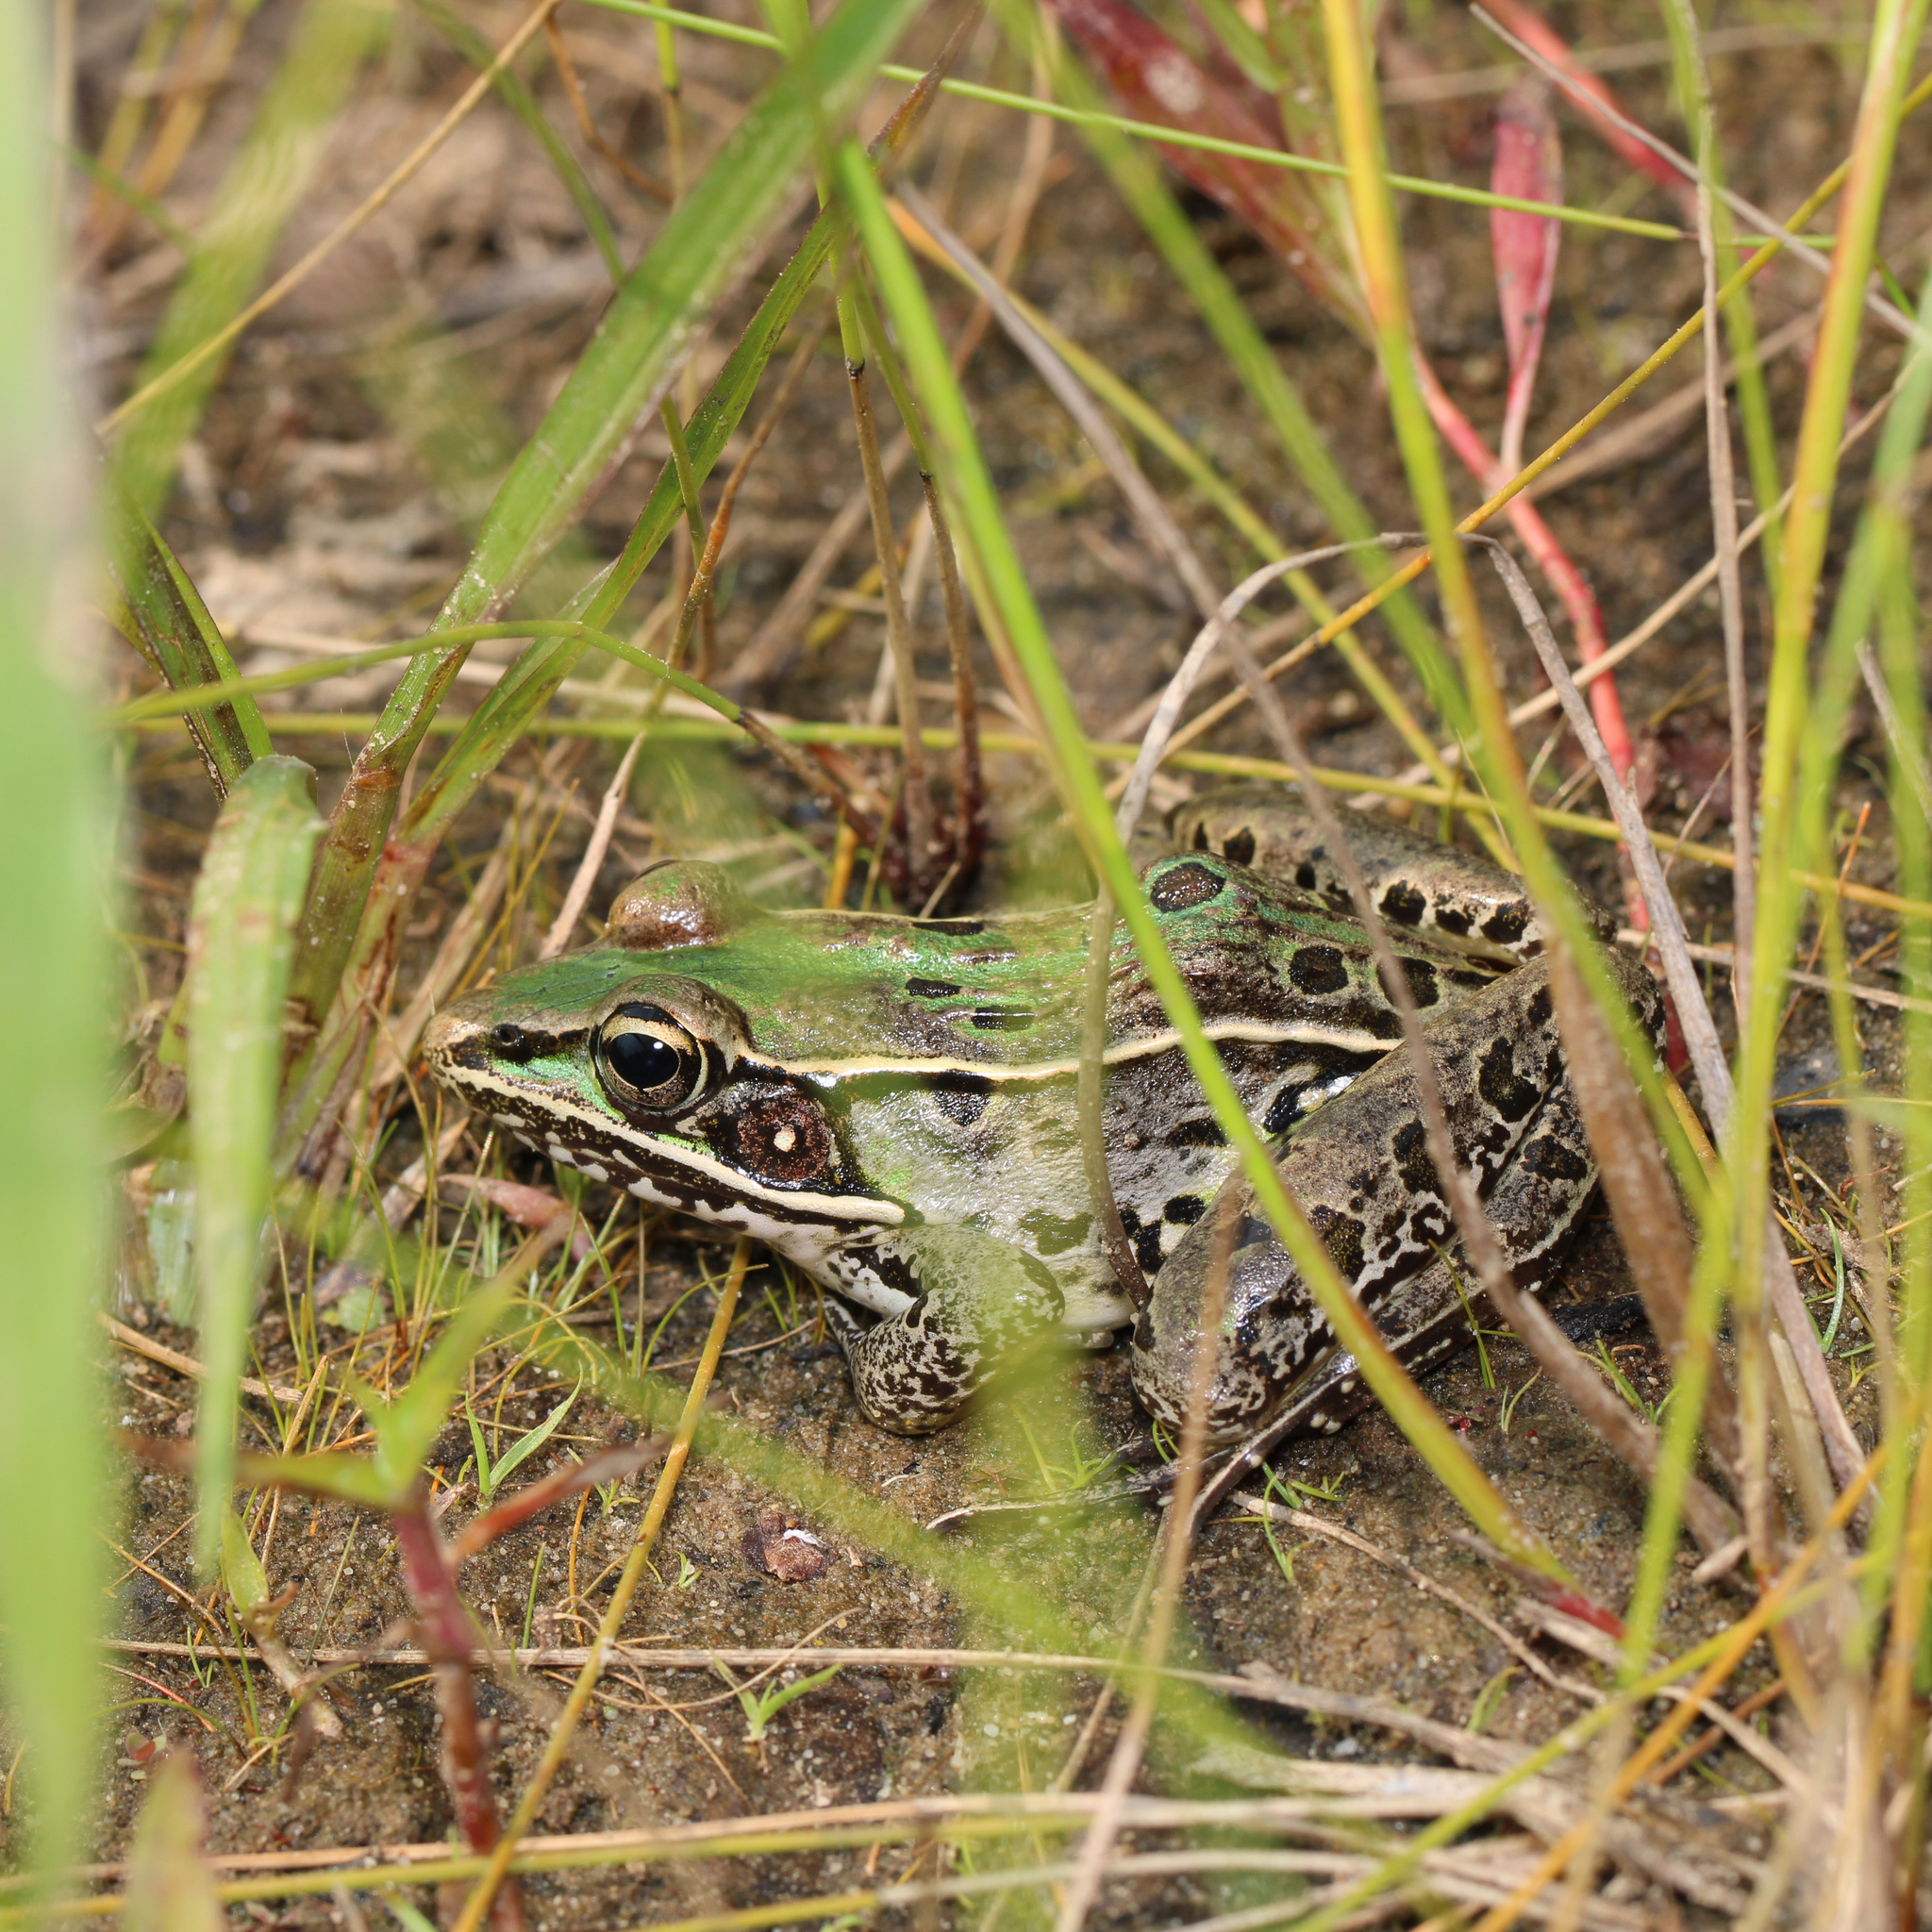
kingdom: Animalia
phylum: Chordata
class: Amphibia
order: Anura
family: Ranidae
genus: Lithobates
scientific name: Lithobates sphenocephalus
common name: Southern leopard frog
